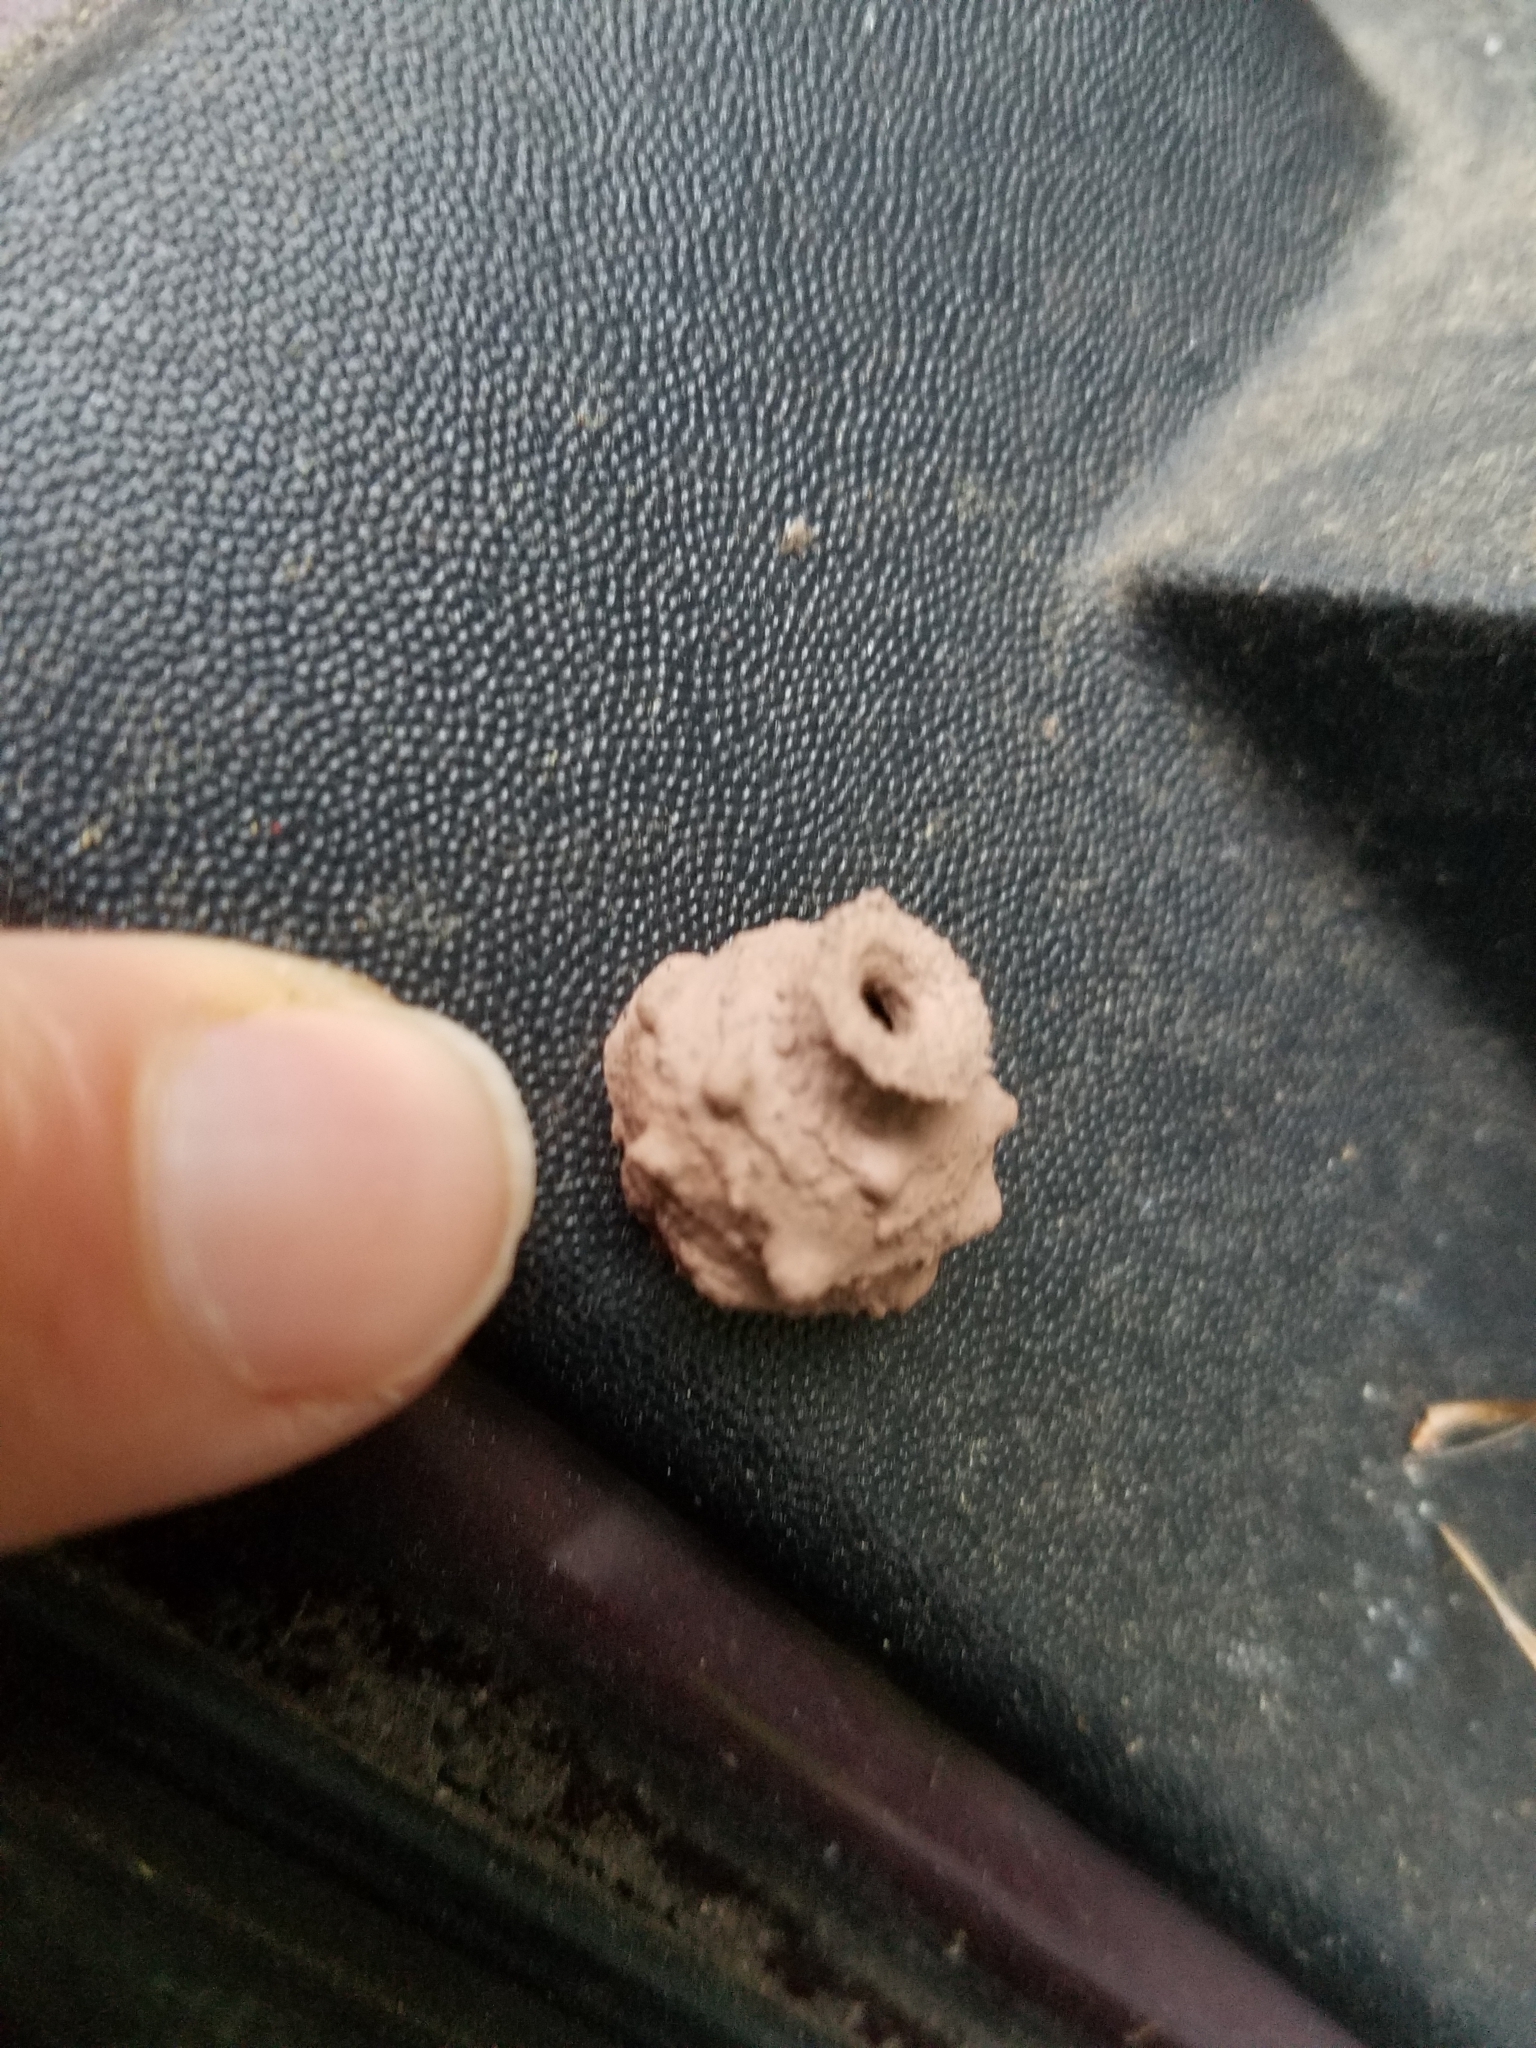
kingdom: Animalia
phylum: Arthropoda
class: Insecta
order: Hymenoptera
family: Vespidae
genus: Eumenes
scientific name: Eumenes
